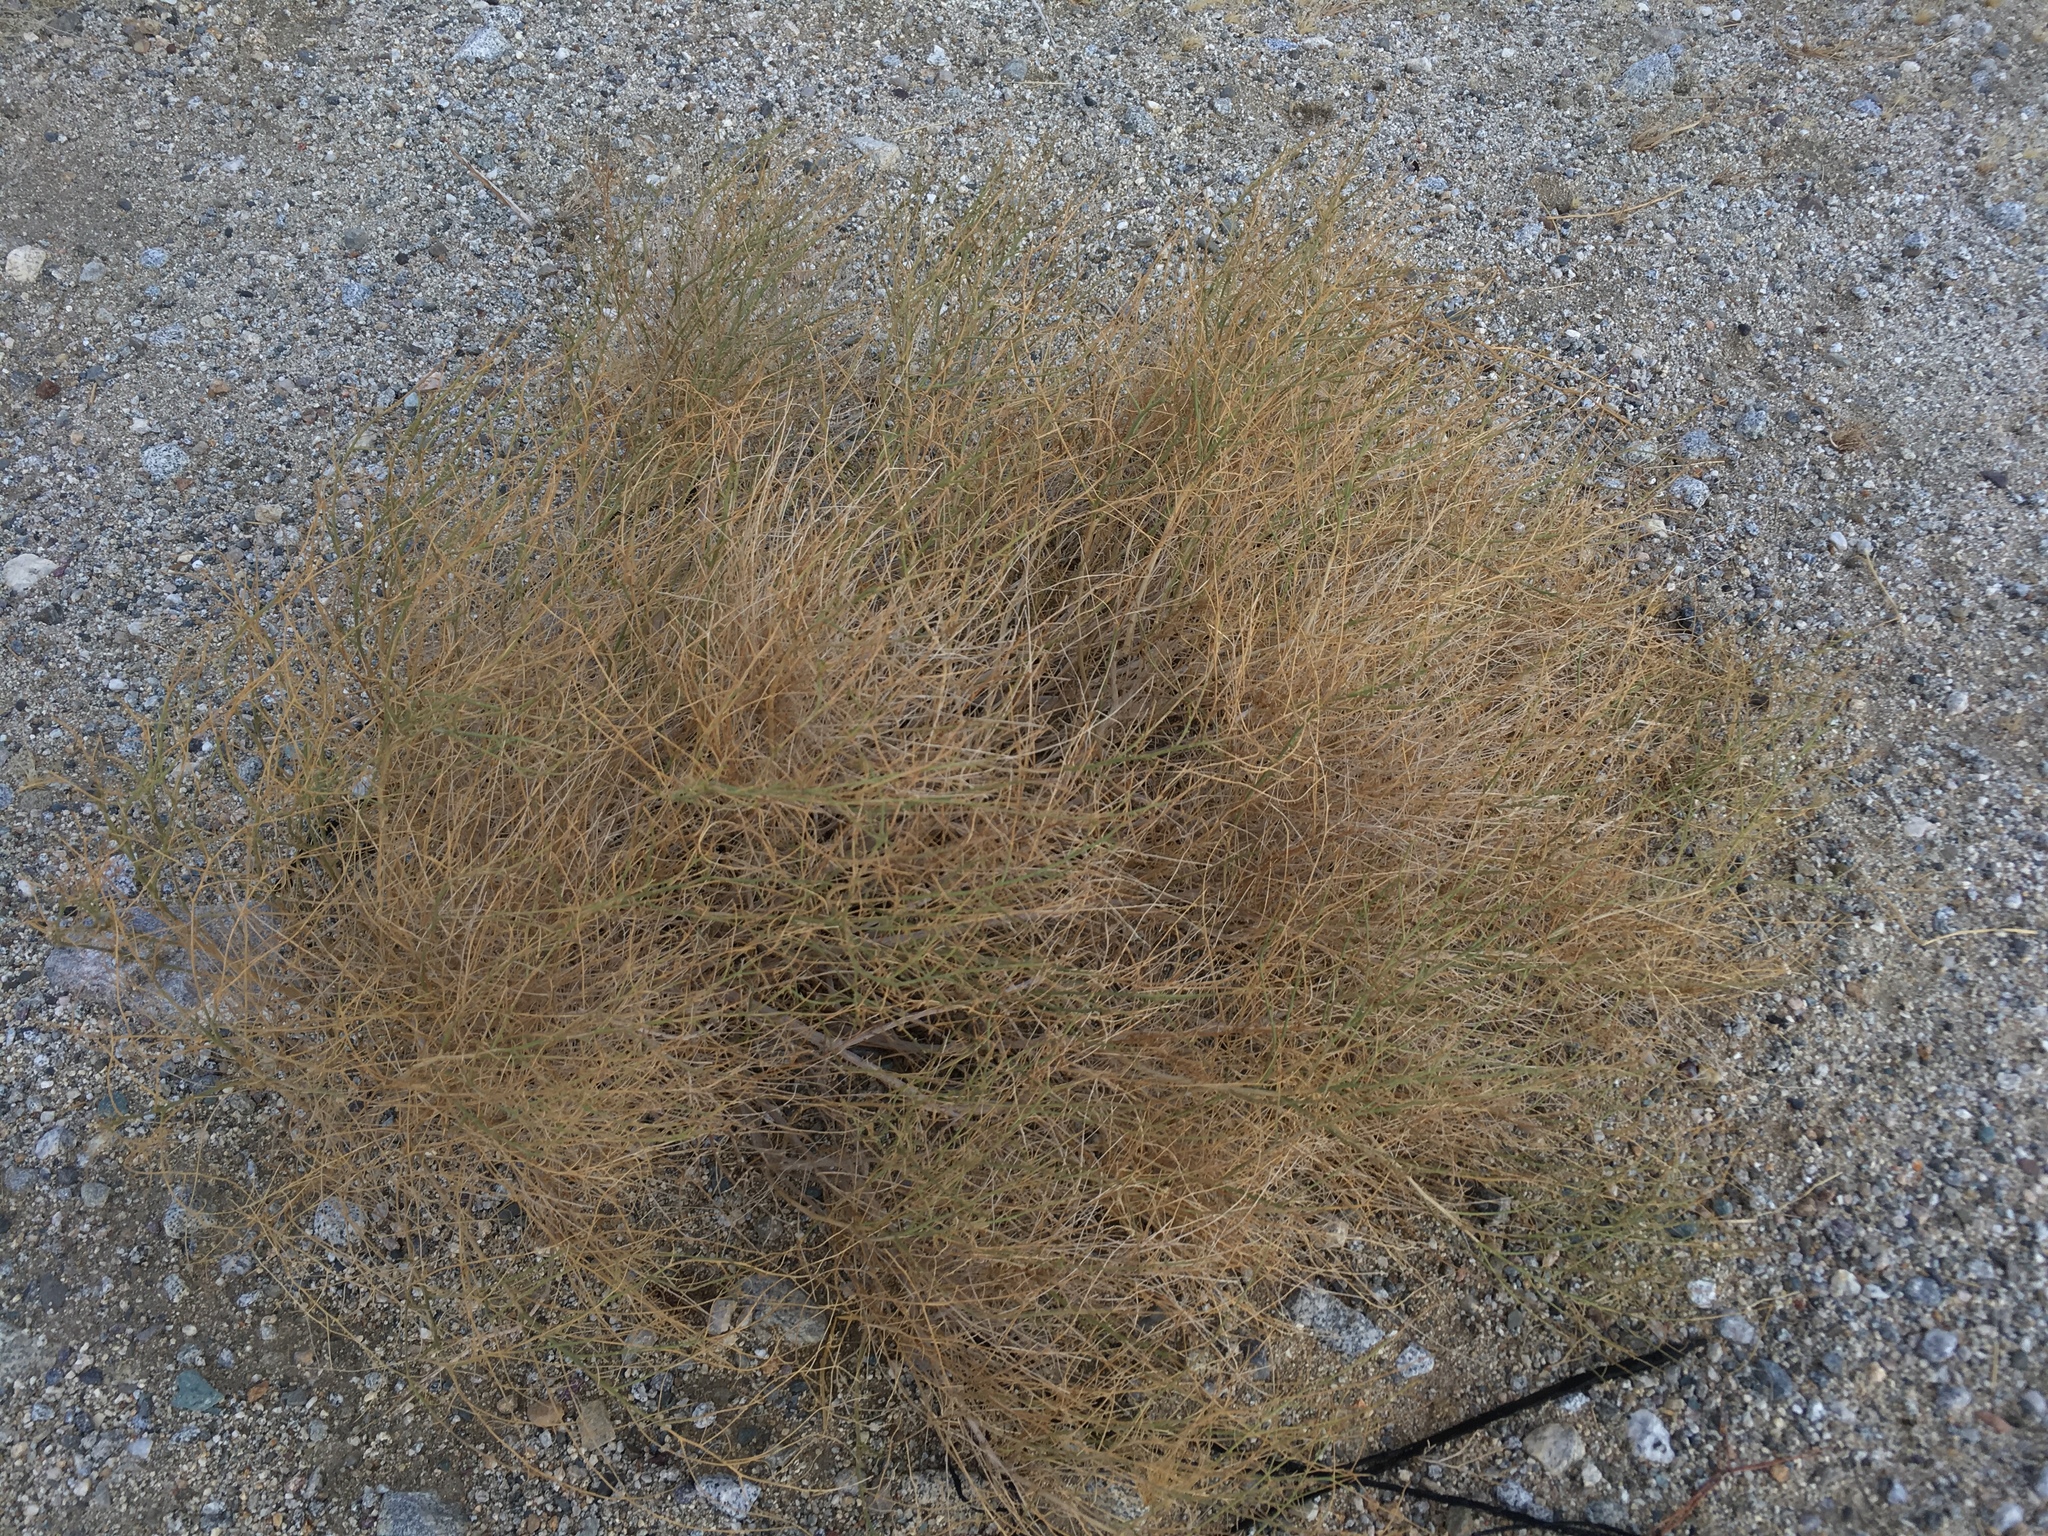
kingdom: Plantae
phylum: Tracheophyta
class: Magnoliopsida
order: Asterales
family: Asteraceae
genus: Ambrosia
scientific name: Ambrosia salsola
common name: Burrobrush
